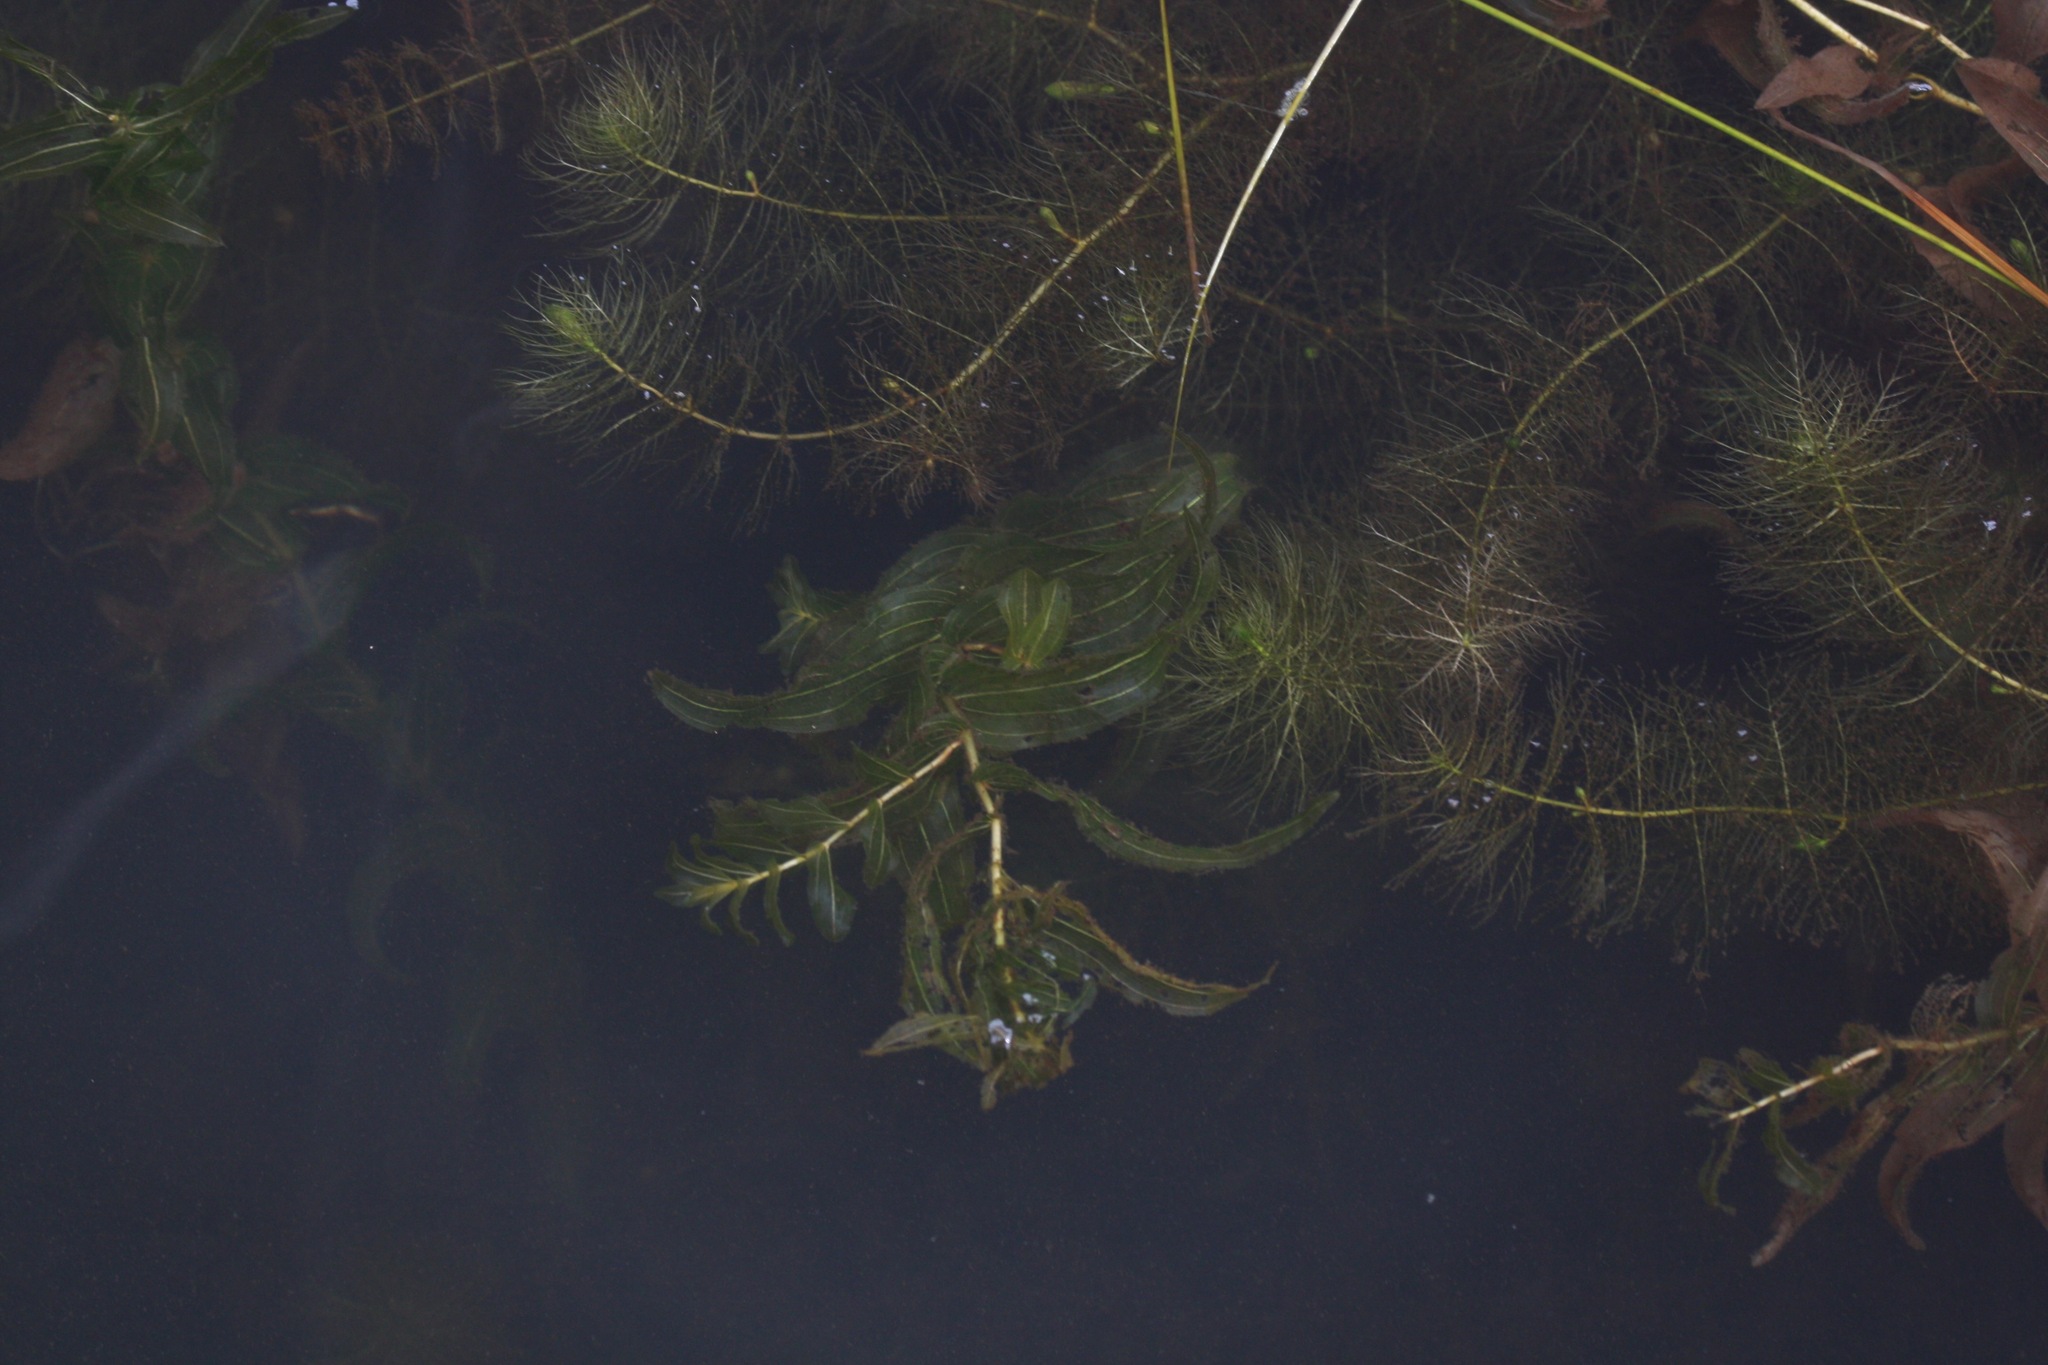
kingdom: Plantae
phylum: Tracheophyta
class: Liliopsida
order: Alismatales
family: Potamogetonaceae
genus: Potamogeton
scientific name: Potamogeton richardsonii
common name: Richardson's pondweed
